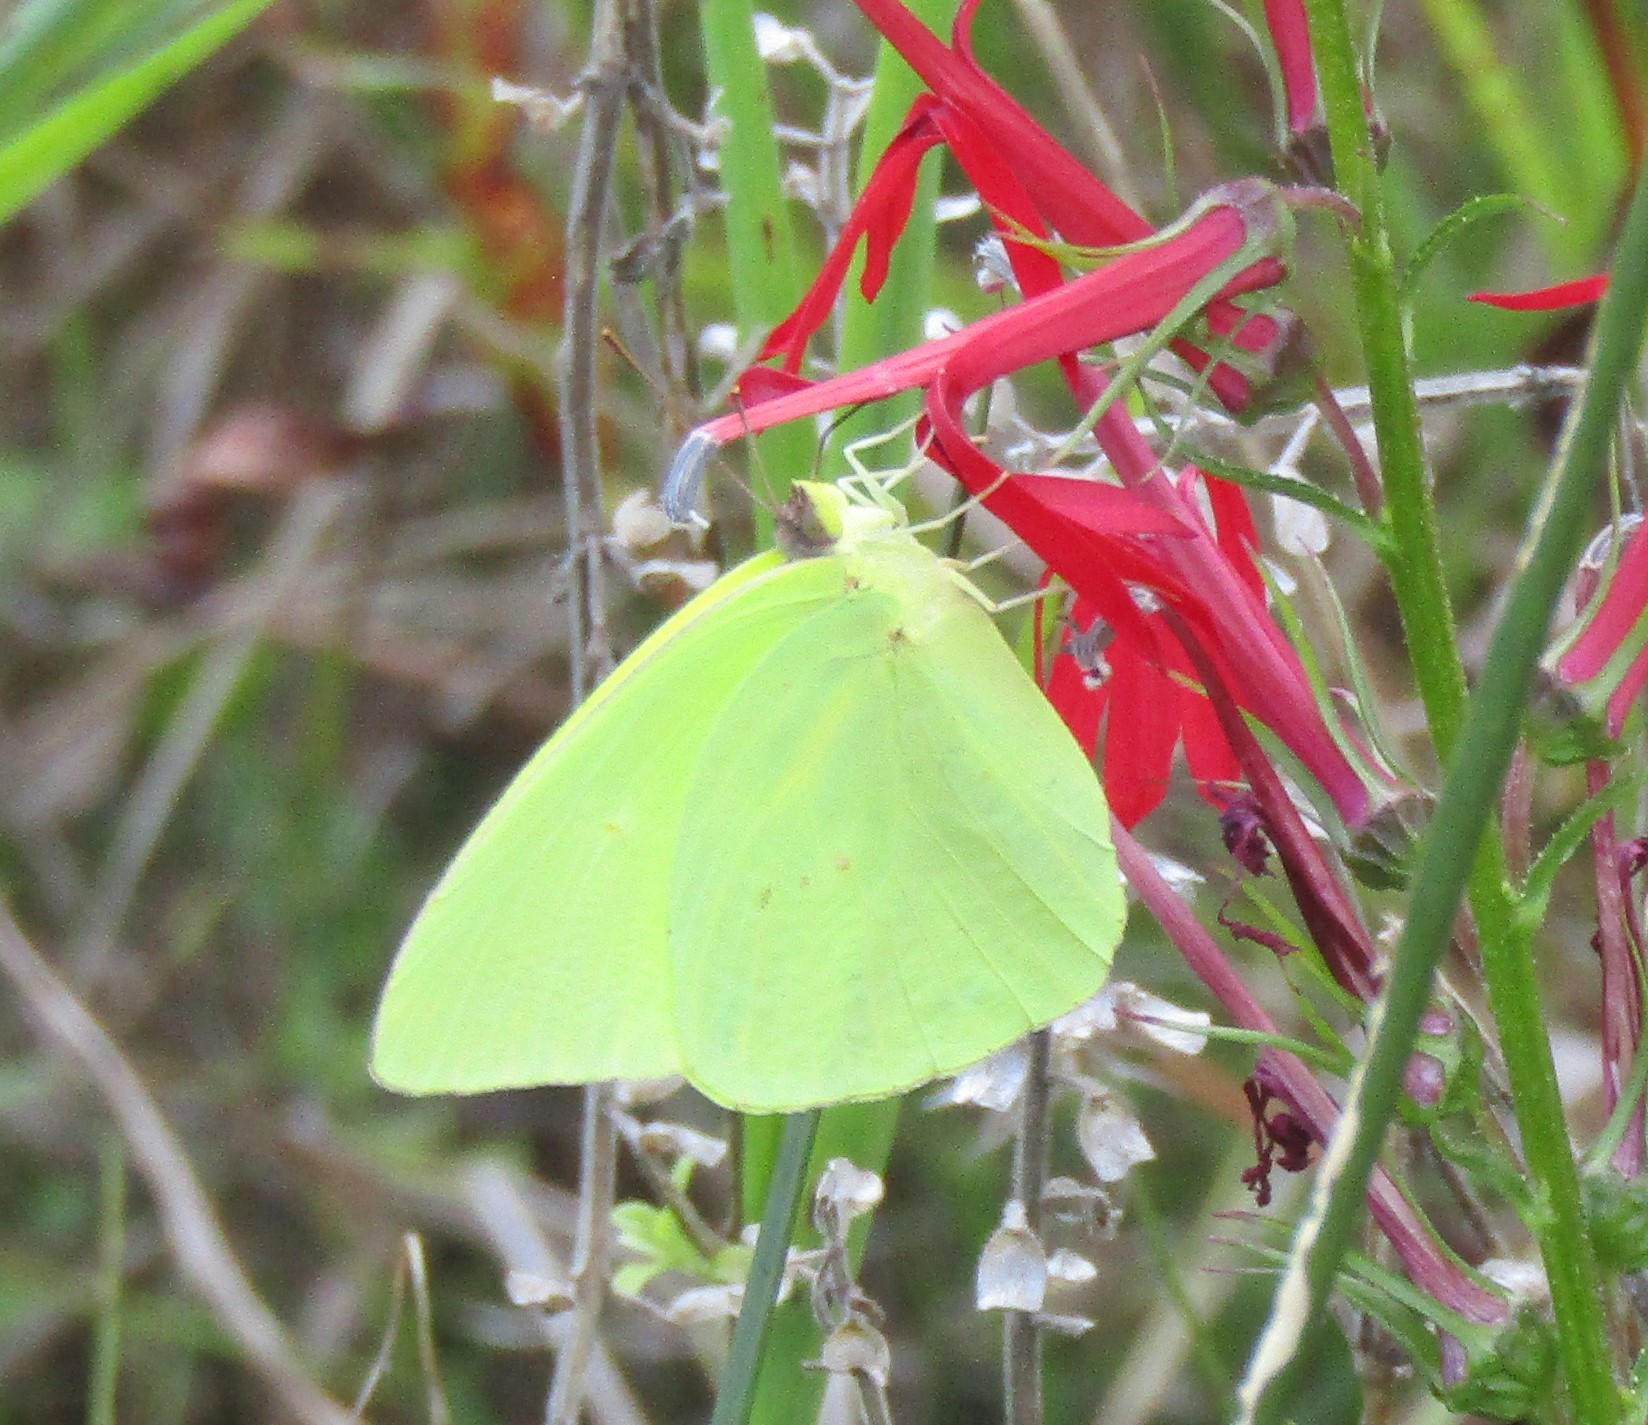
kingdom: Animalia
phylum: Arthropoda
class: Insecta
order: Lepidoptera
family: Pieridae
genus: Phoebis
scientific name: Phoebis sennae
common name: Cloudless sulphur
